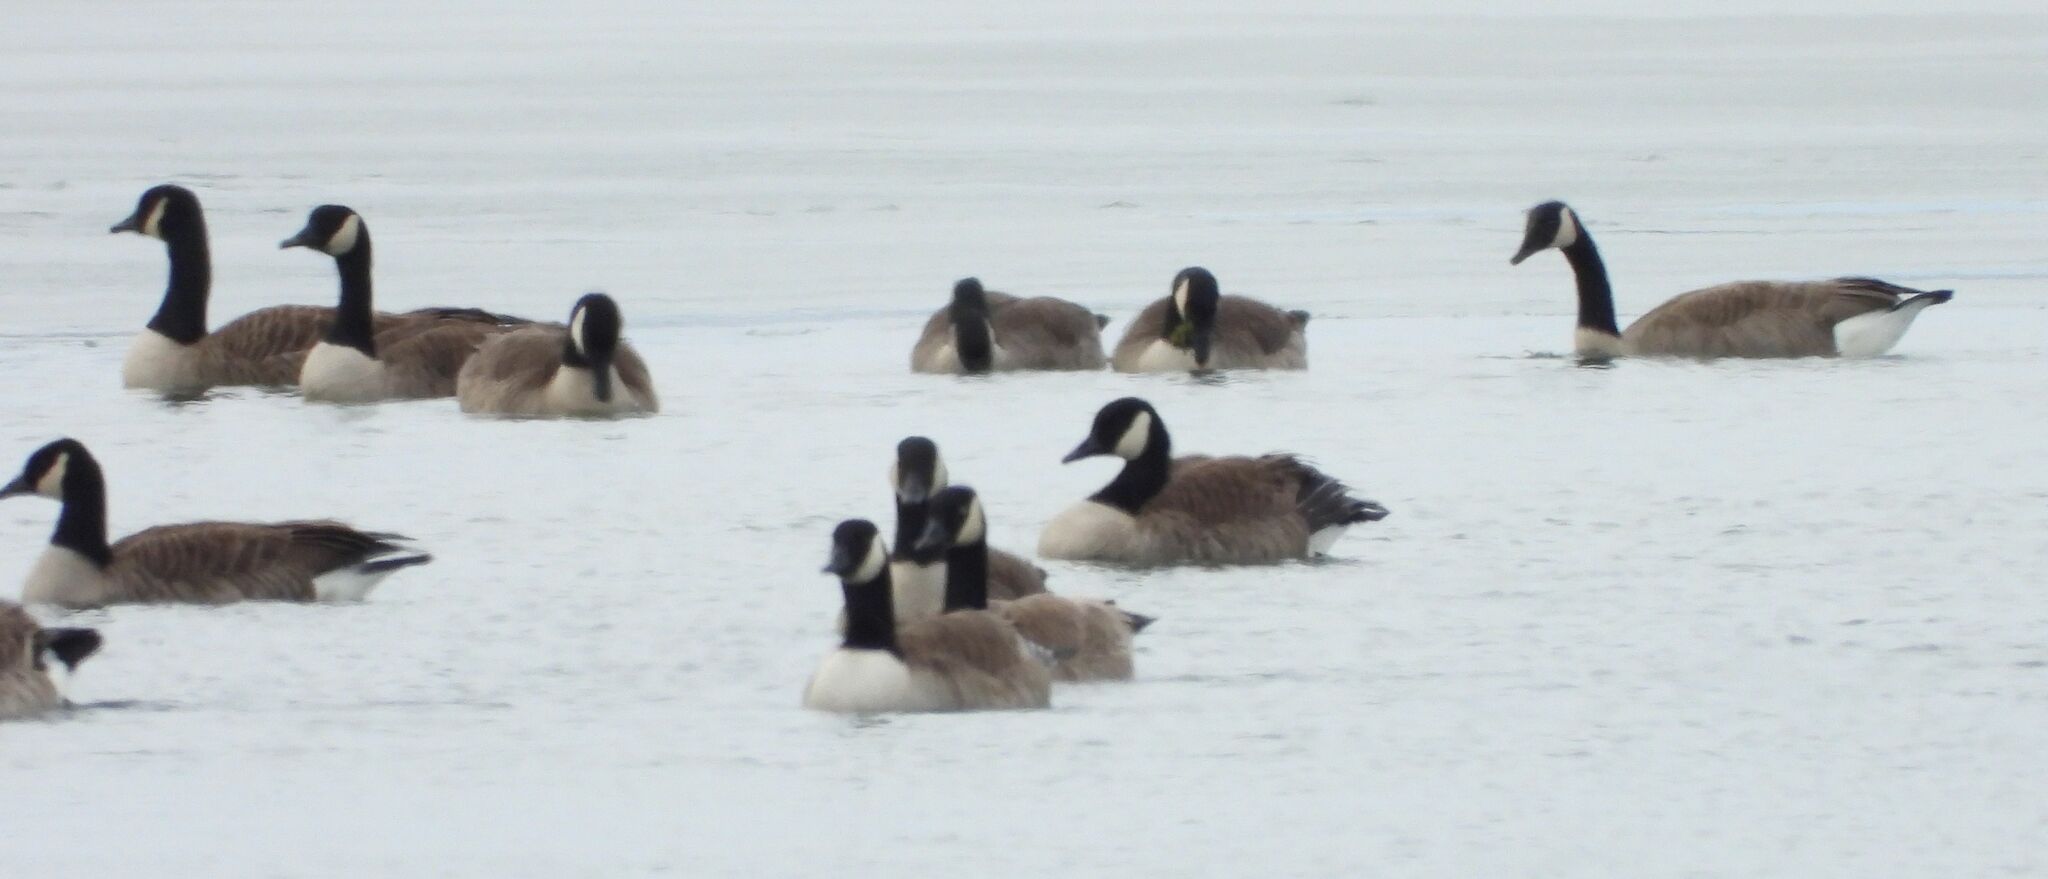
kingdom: Animalia
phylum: Chordata
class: Aves
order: Anseriformes
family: Anatidae
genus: Branta
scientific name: Branta canadensis
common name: Canada goose
